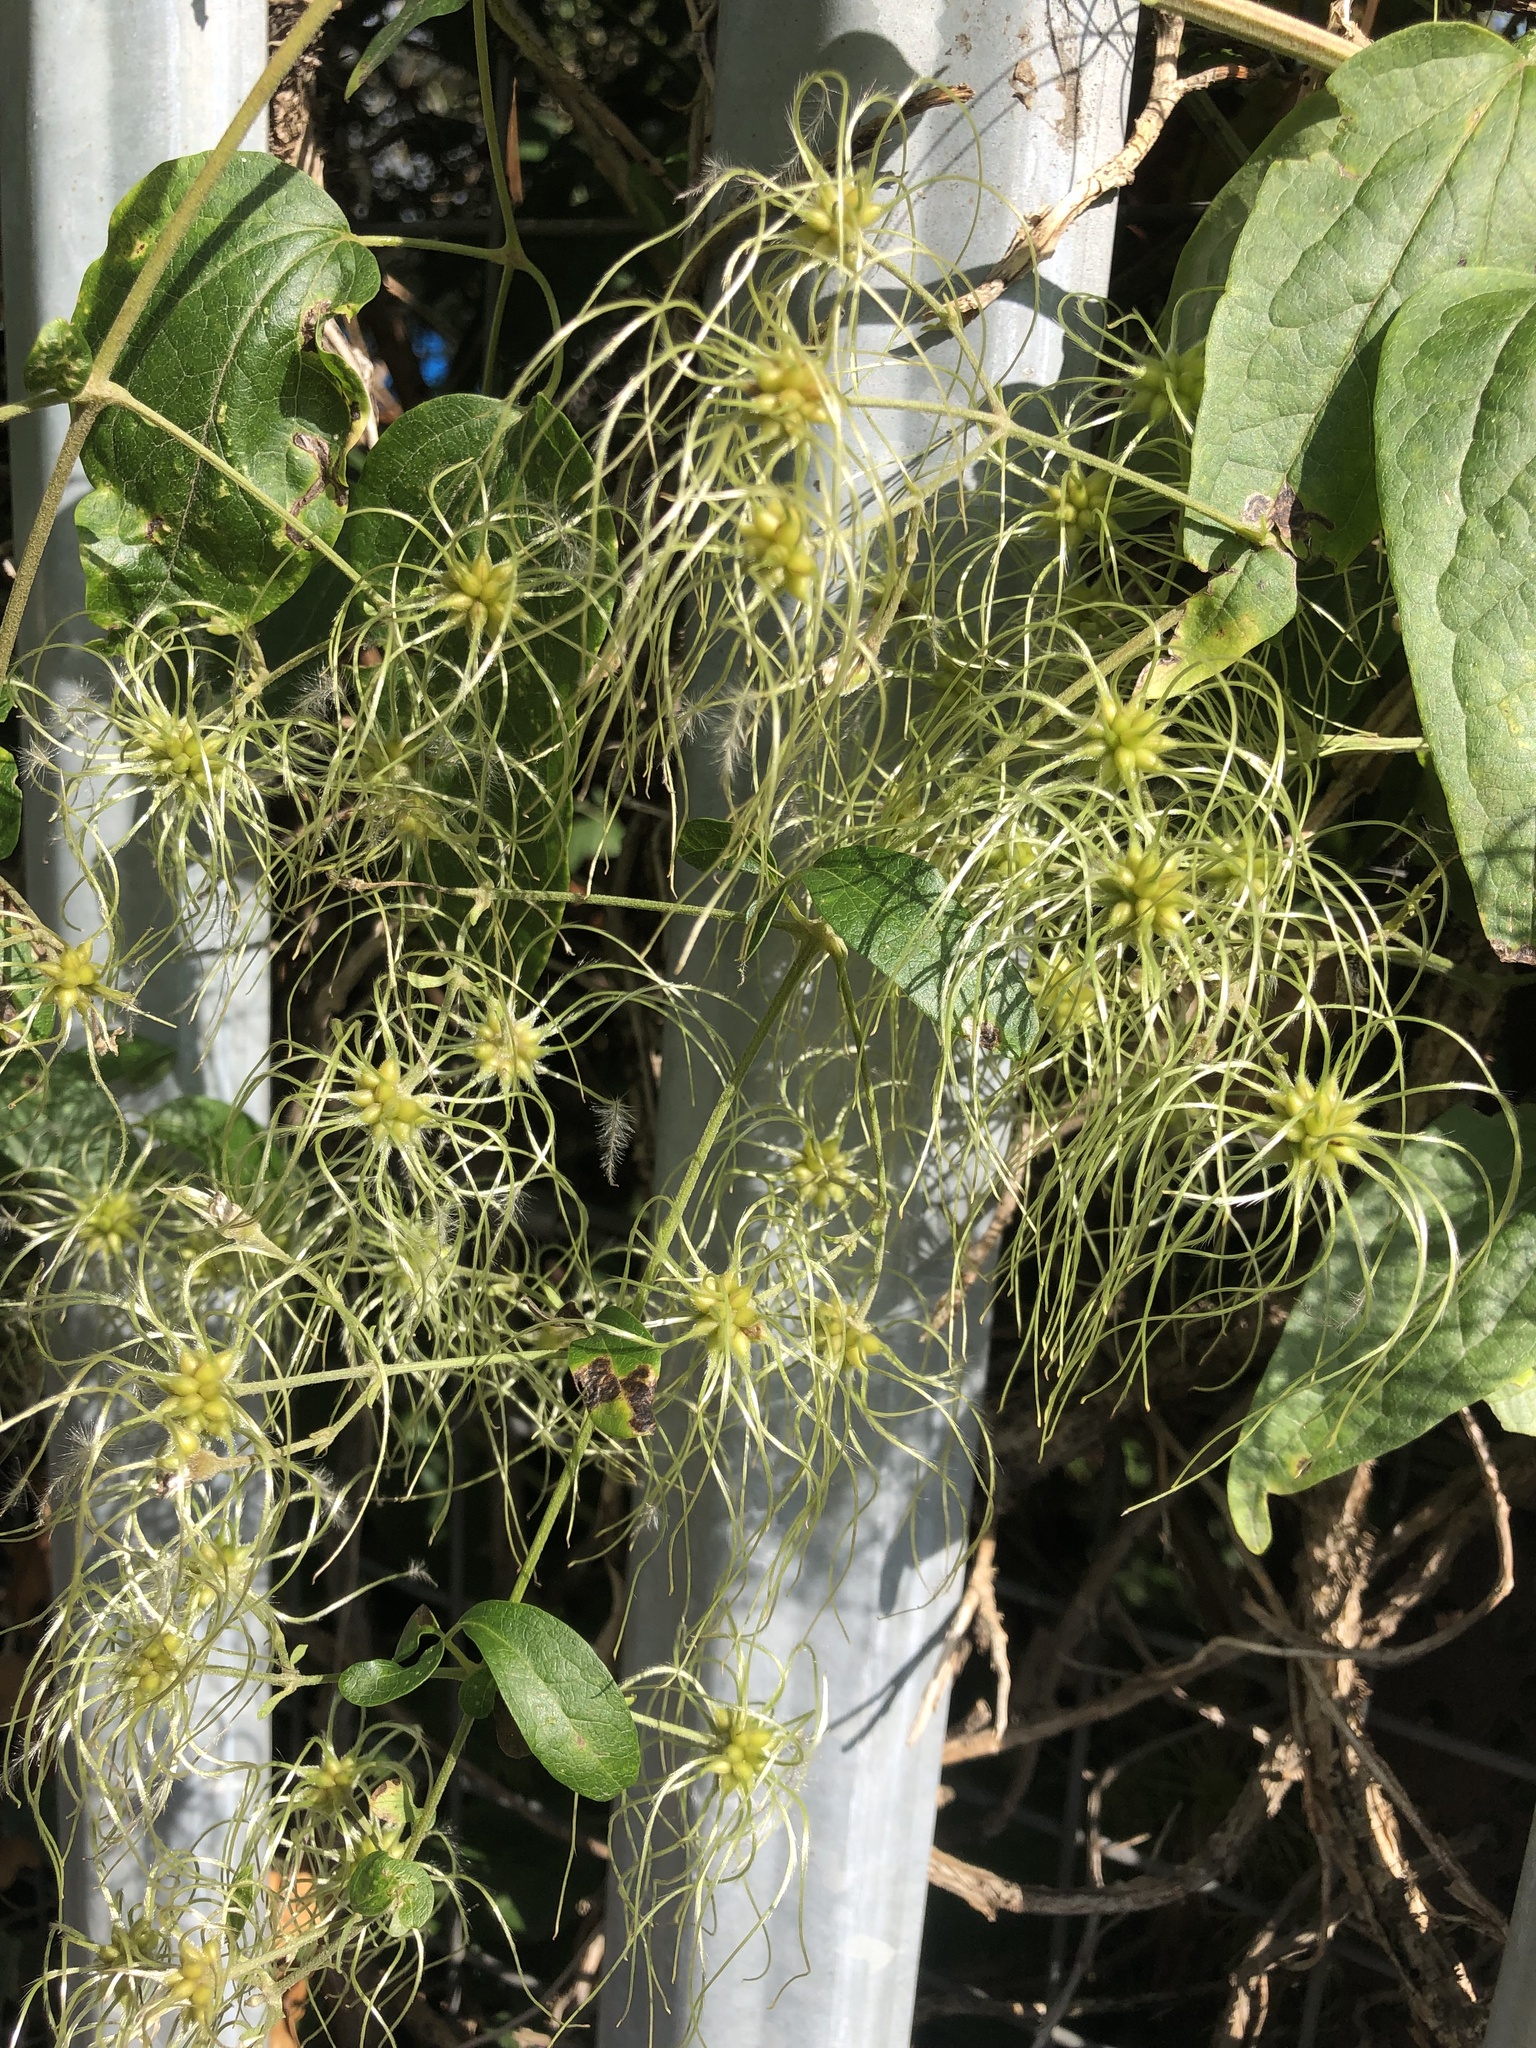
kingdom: Plantae
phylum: Tracheophyta
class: Magnoliopsida
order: Ranunculales
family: Ranunculaceae
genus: Clematis
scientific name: Clematis vitalba
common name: Evergreen clematis
